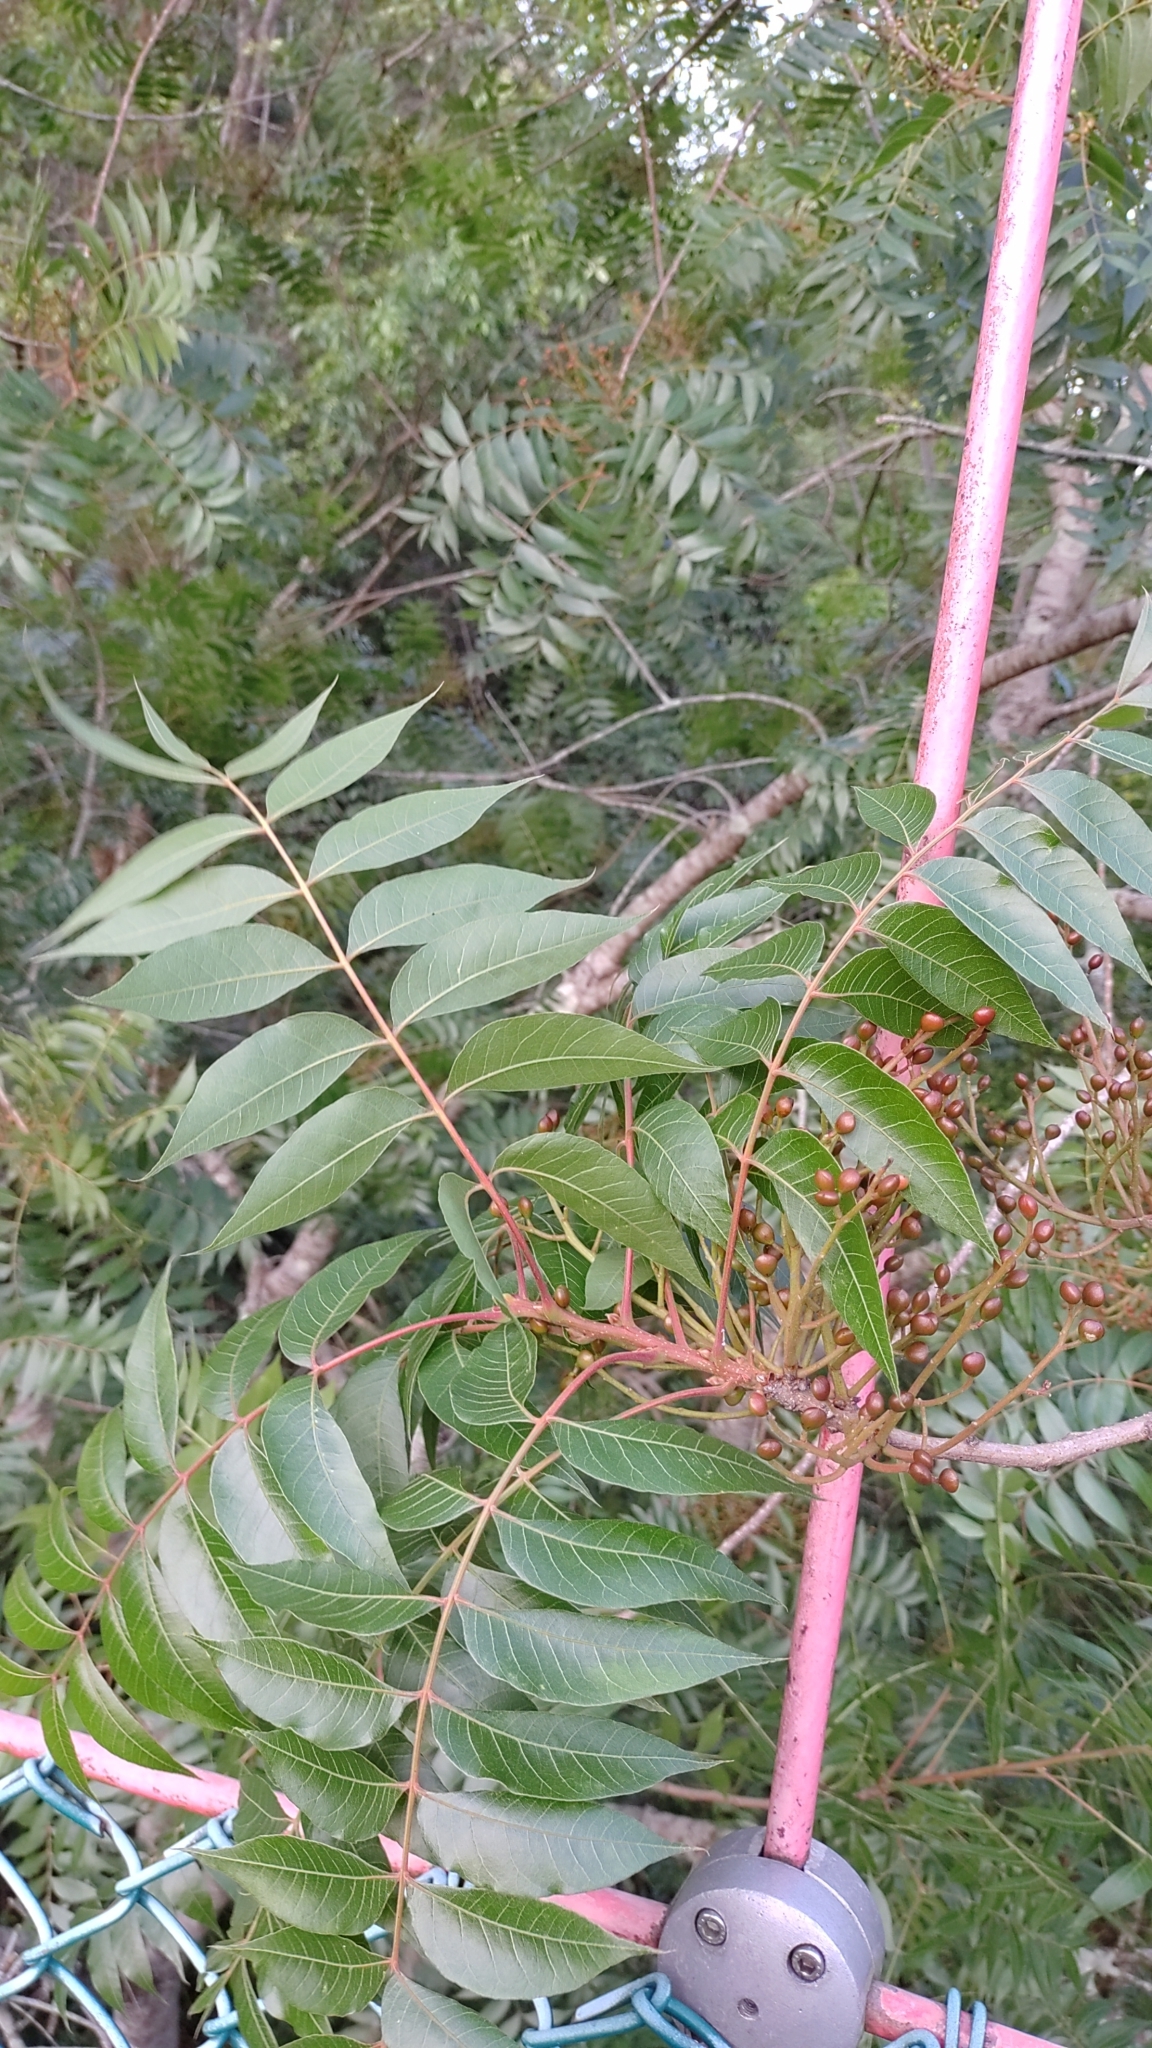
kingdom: Plantae
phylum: Tracheophyta
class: Magnoliopsida
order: Sapindales
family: Anacardiaceae
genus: Pistacia
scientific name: Pistacia chinensis
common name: Chinese pistache
